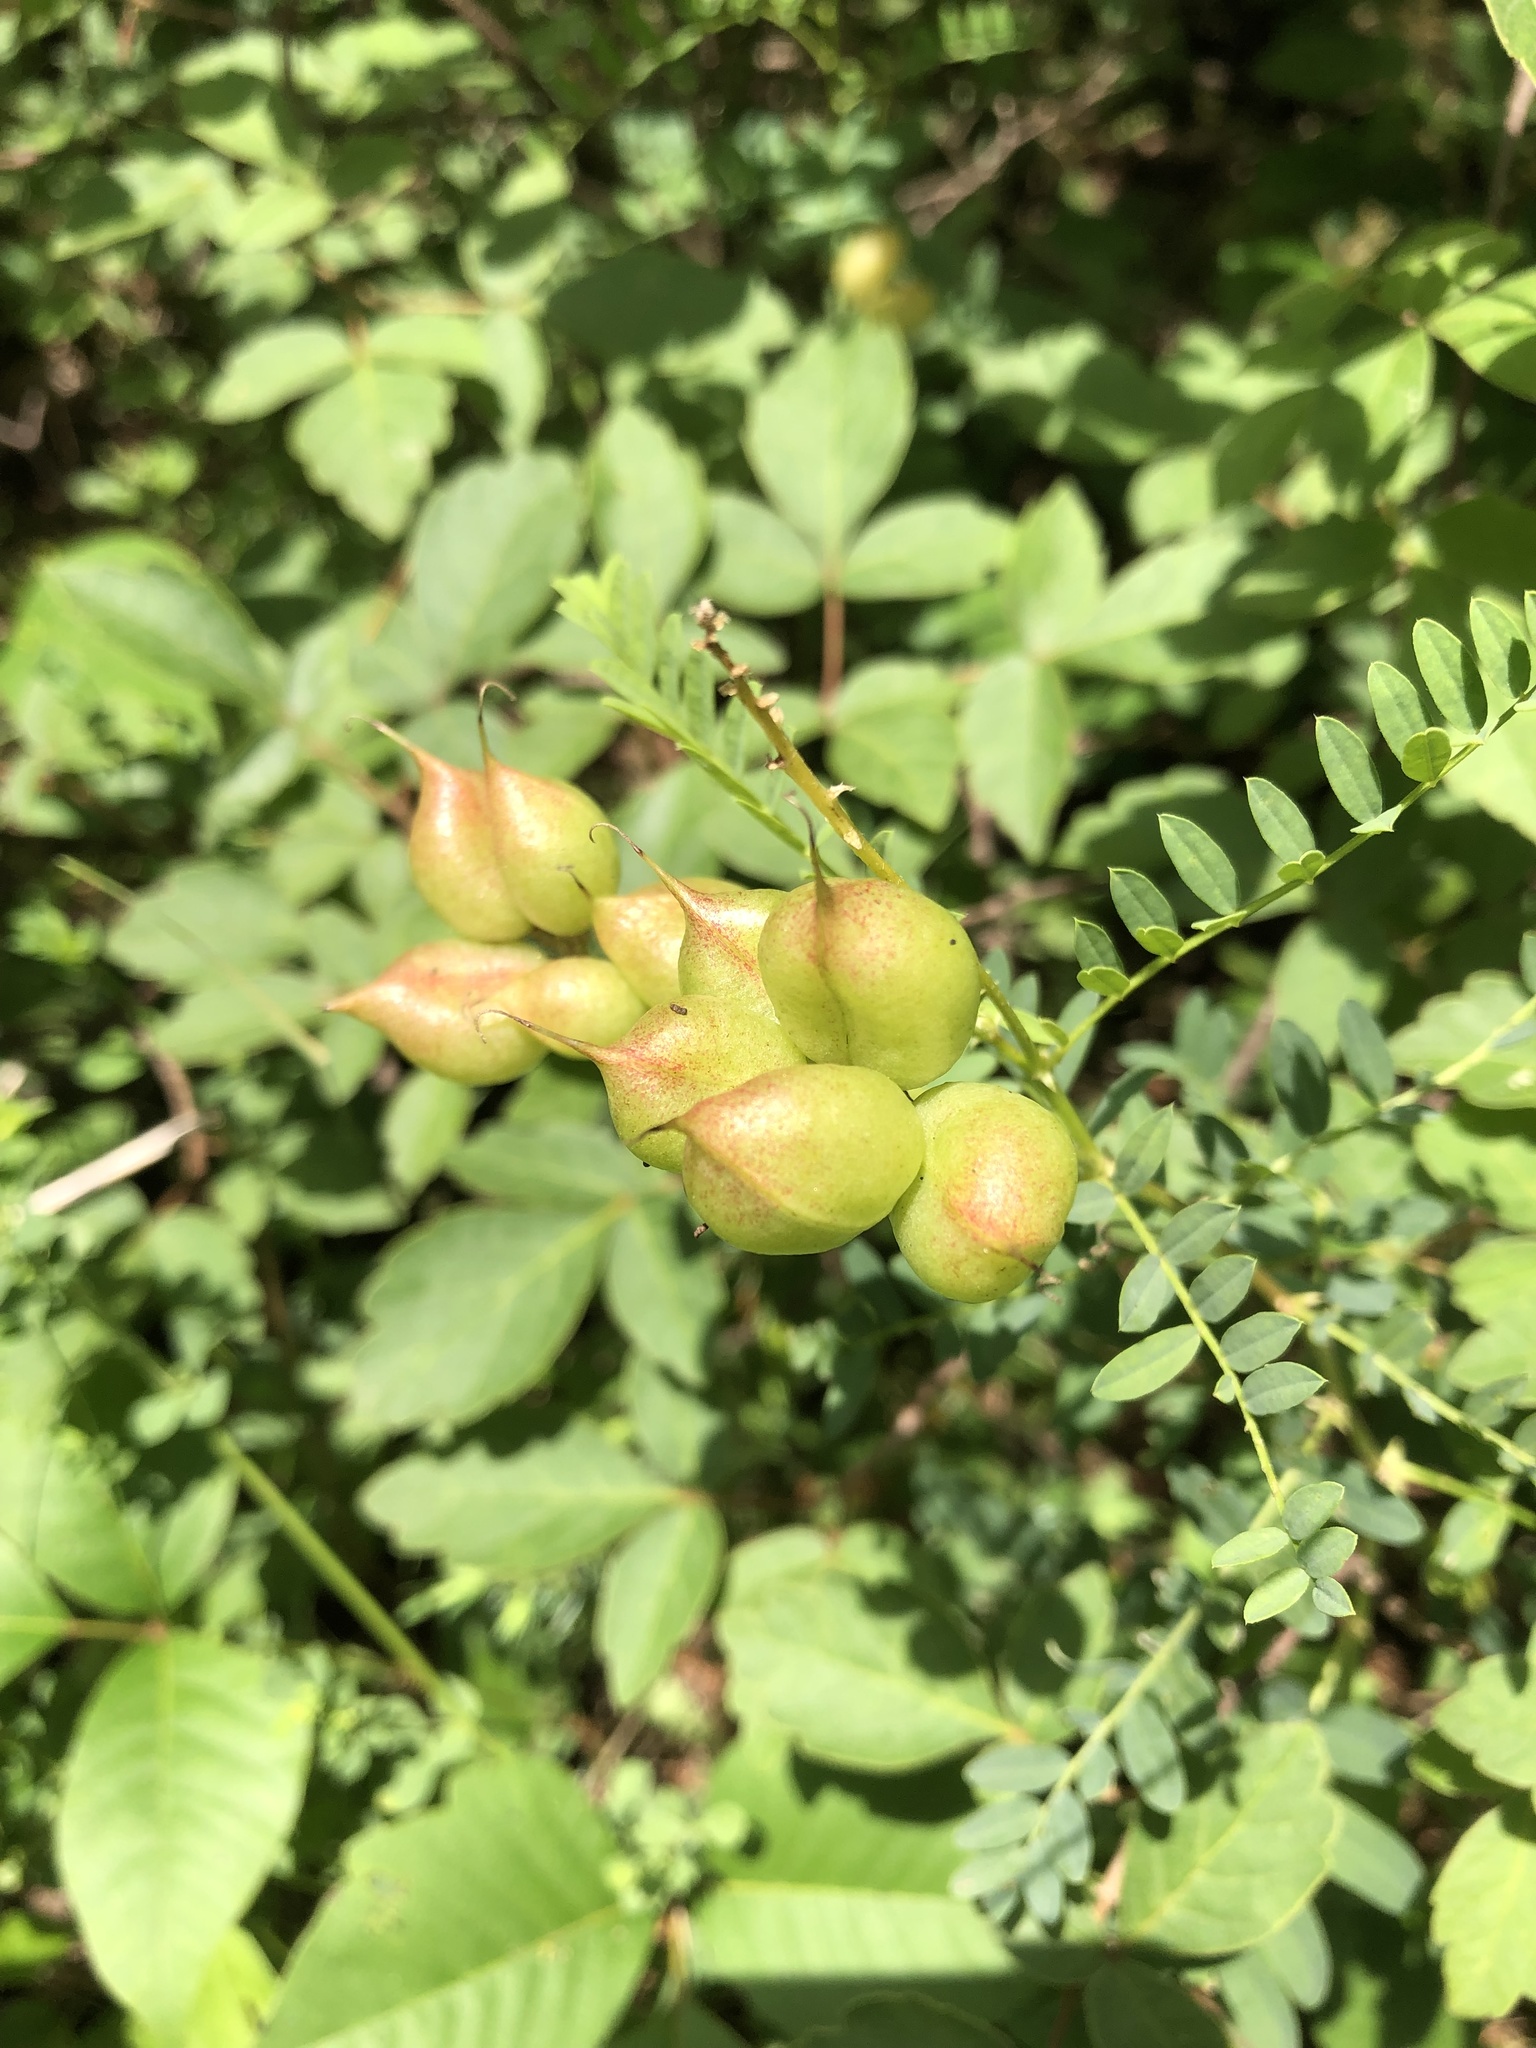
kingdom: Plantae
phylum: Tracheophyta
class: Magnoliopsida
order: Fabales
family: Fabaceae
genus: Astragalus
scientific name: Astragalus neglectus
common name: Cooper's milk-vetch
